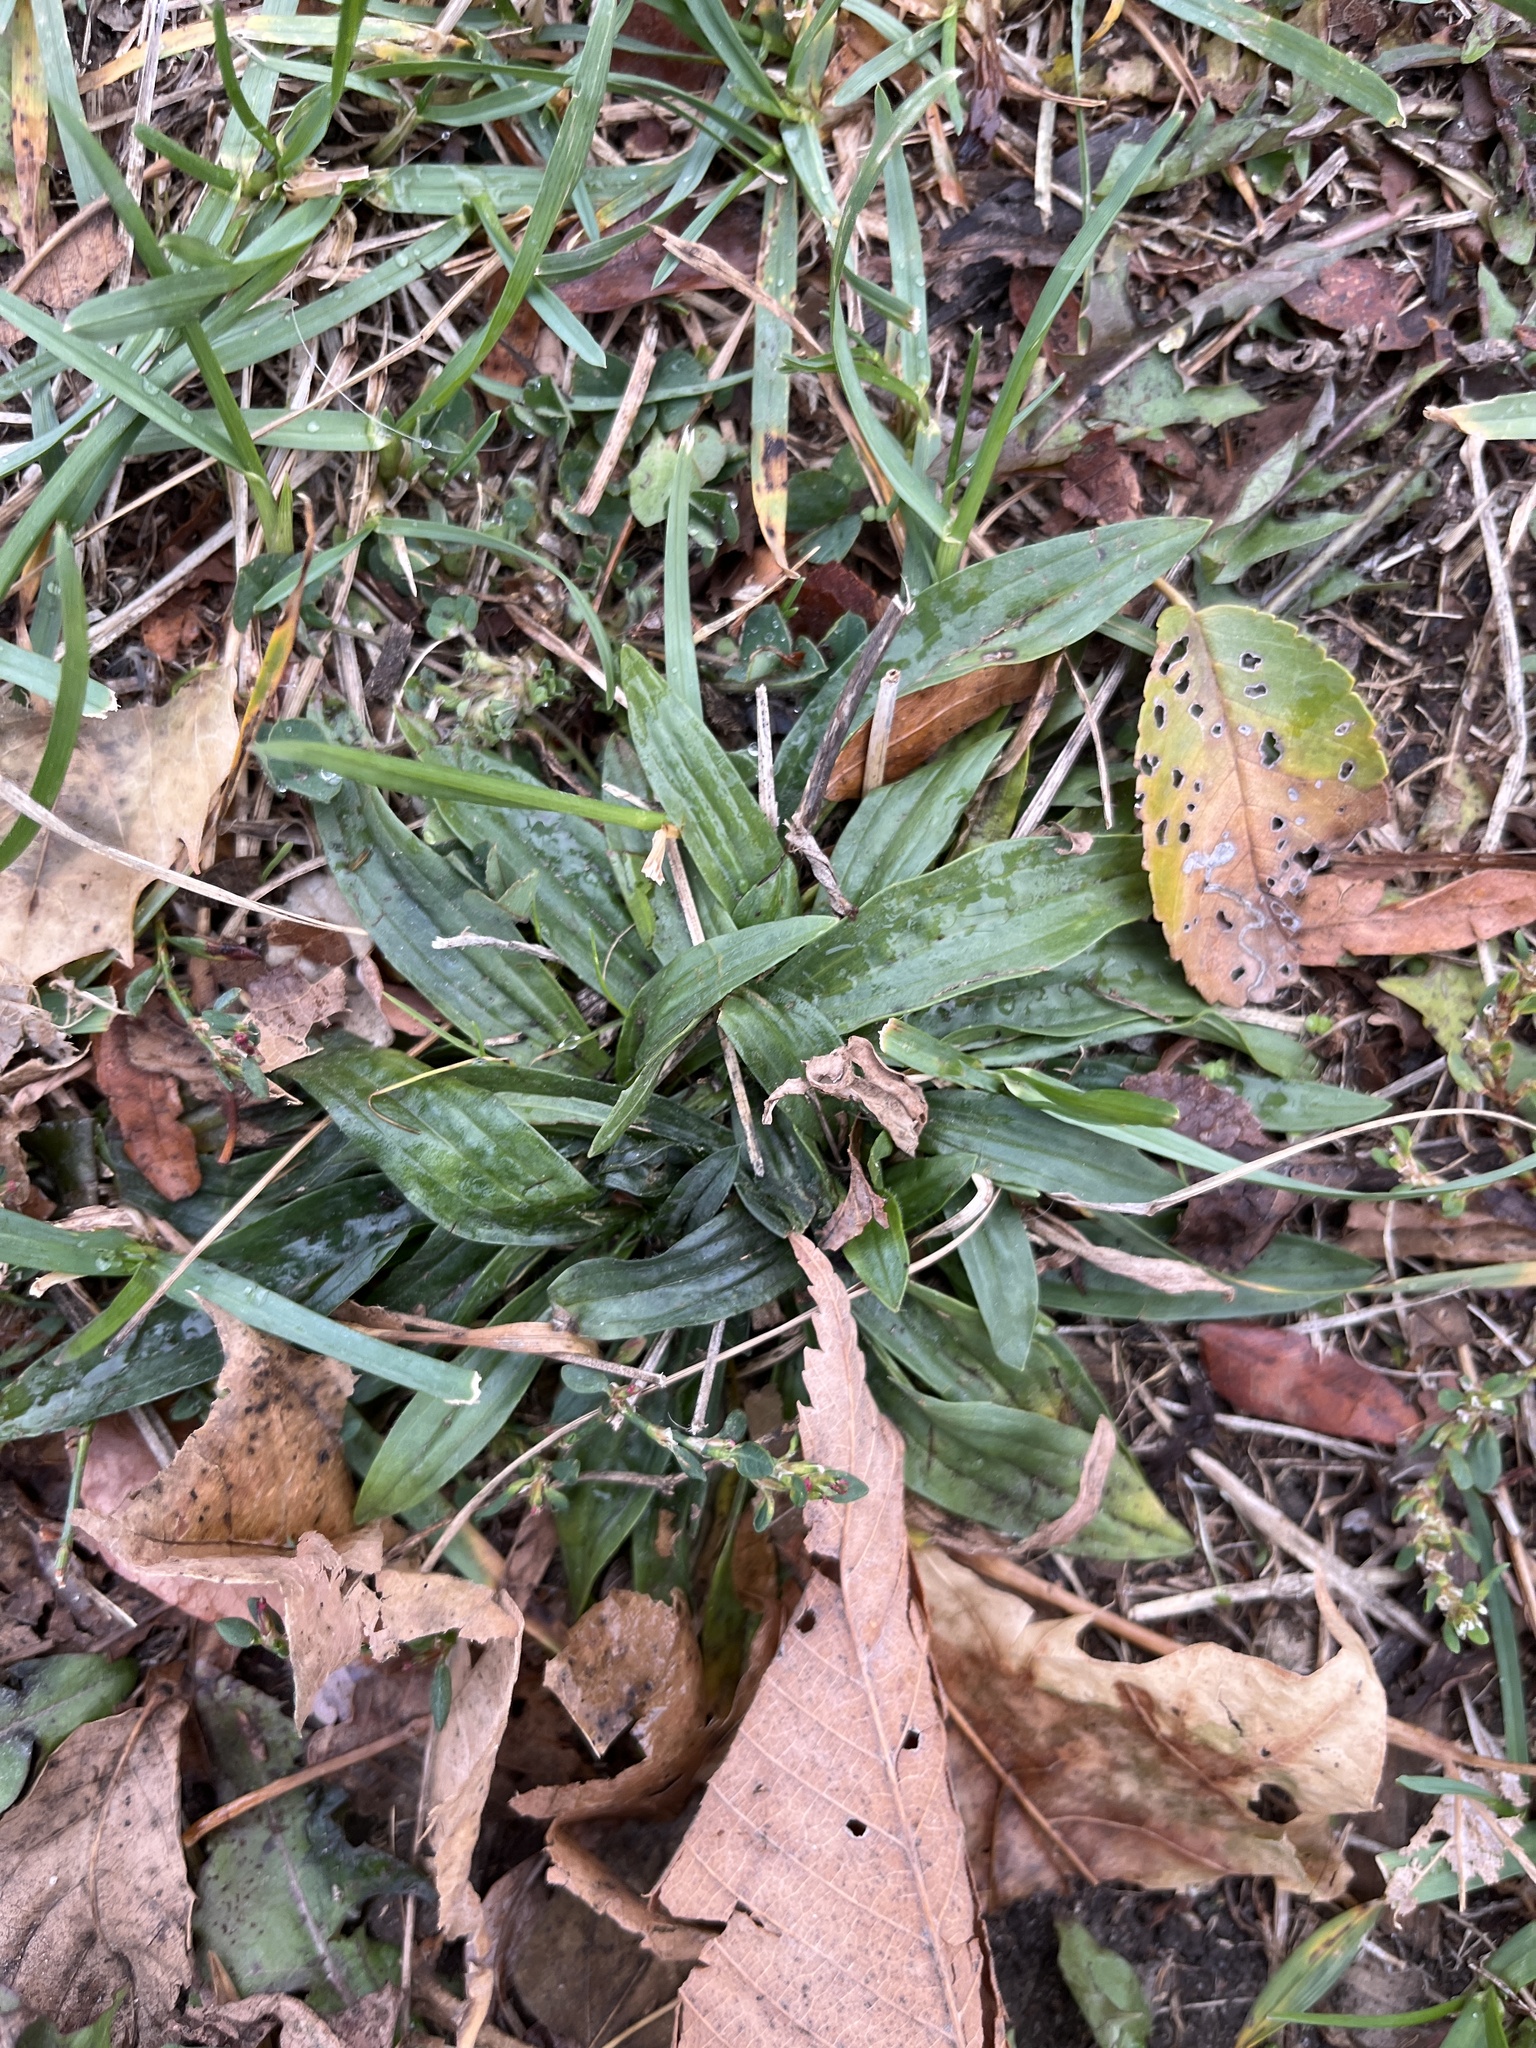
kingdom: Plantae
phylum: Tracheophyta
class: Magnoliopsida
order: Lamiales
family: Plantaginaceae
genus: Plantago
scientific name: Plantago lanceolata
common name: Ribwort plantain
